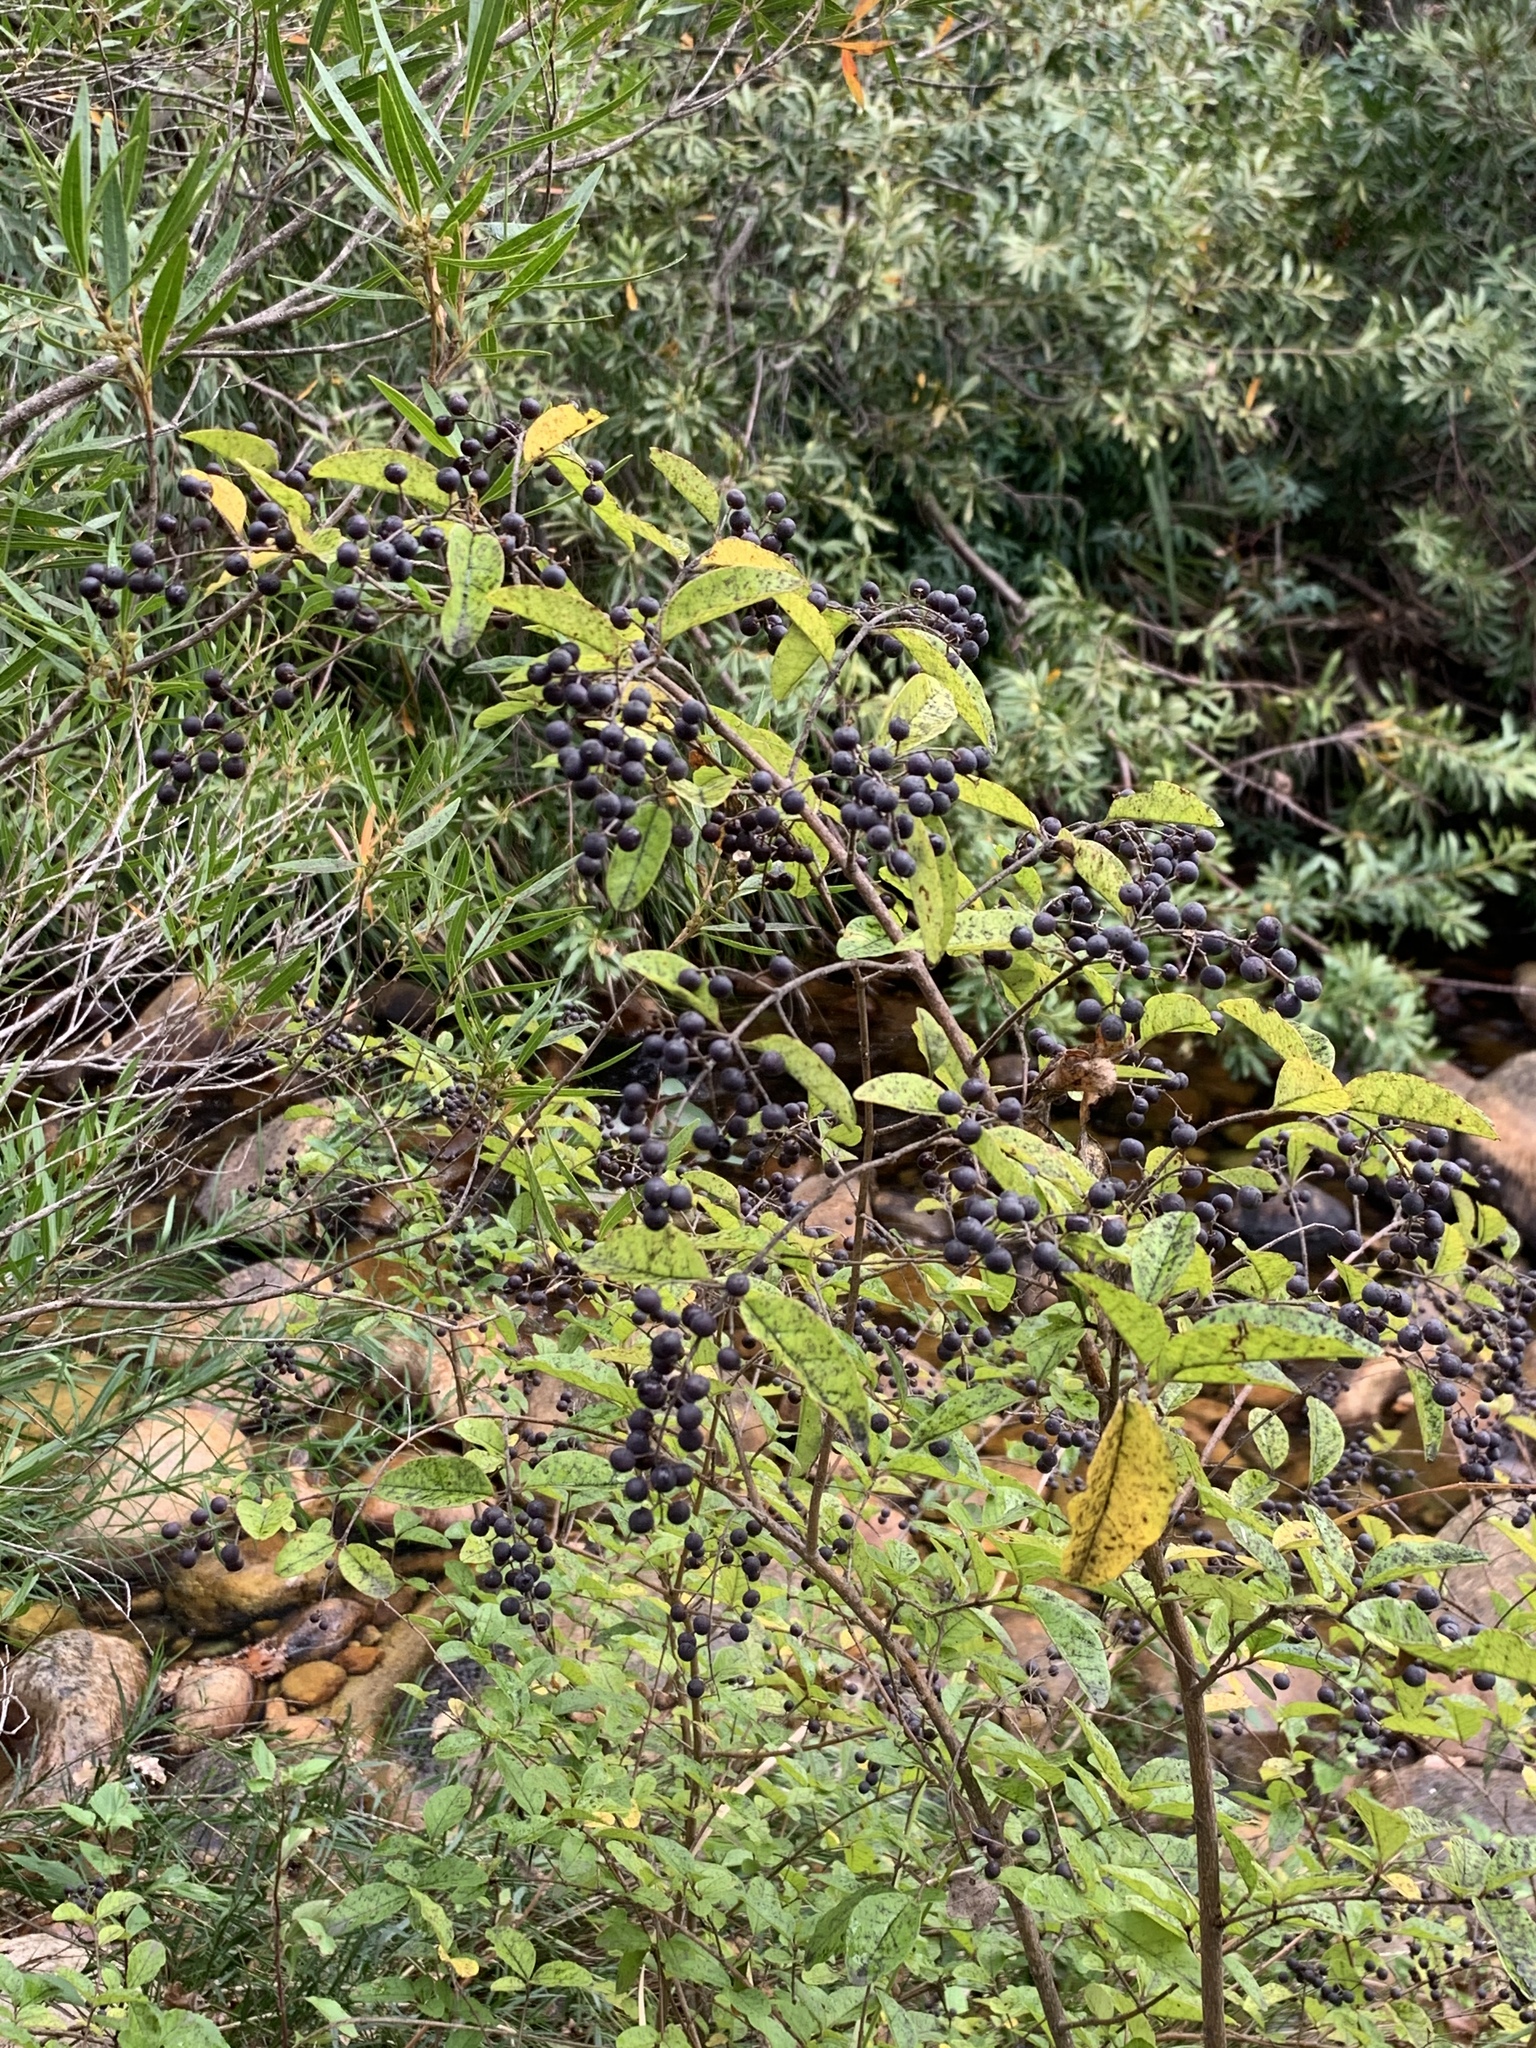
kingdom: Plantae
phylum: Tracheophyta
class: Magnoliopsida
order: Lamiales
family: Oleaceae
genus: Ligustrum
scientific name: Ligustrum sinense
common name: Chinese privet
